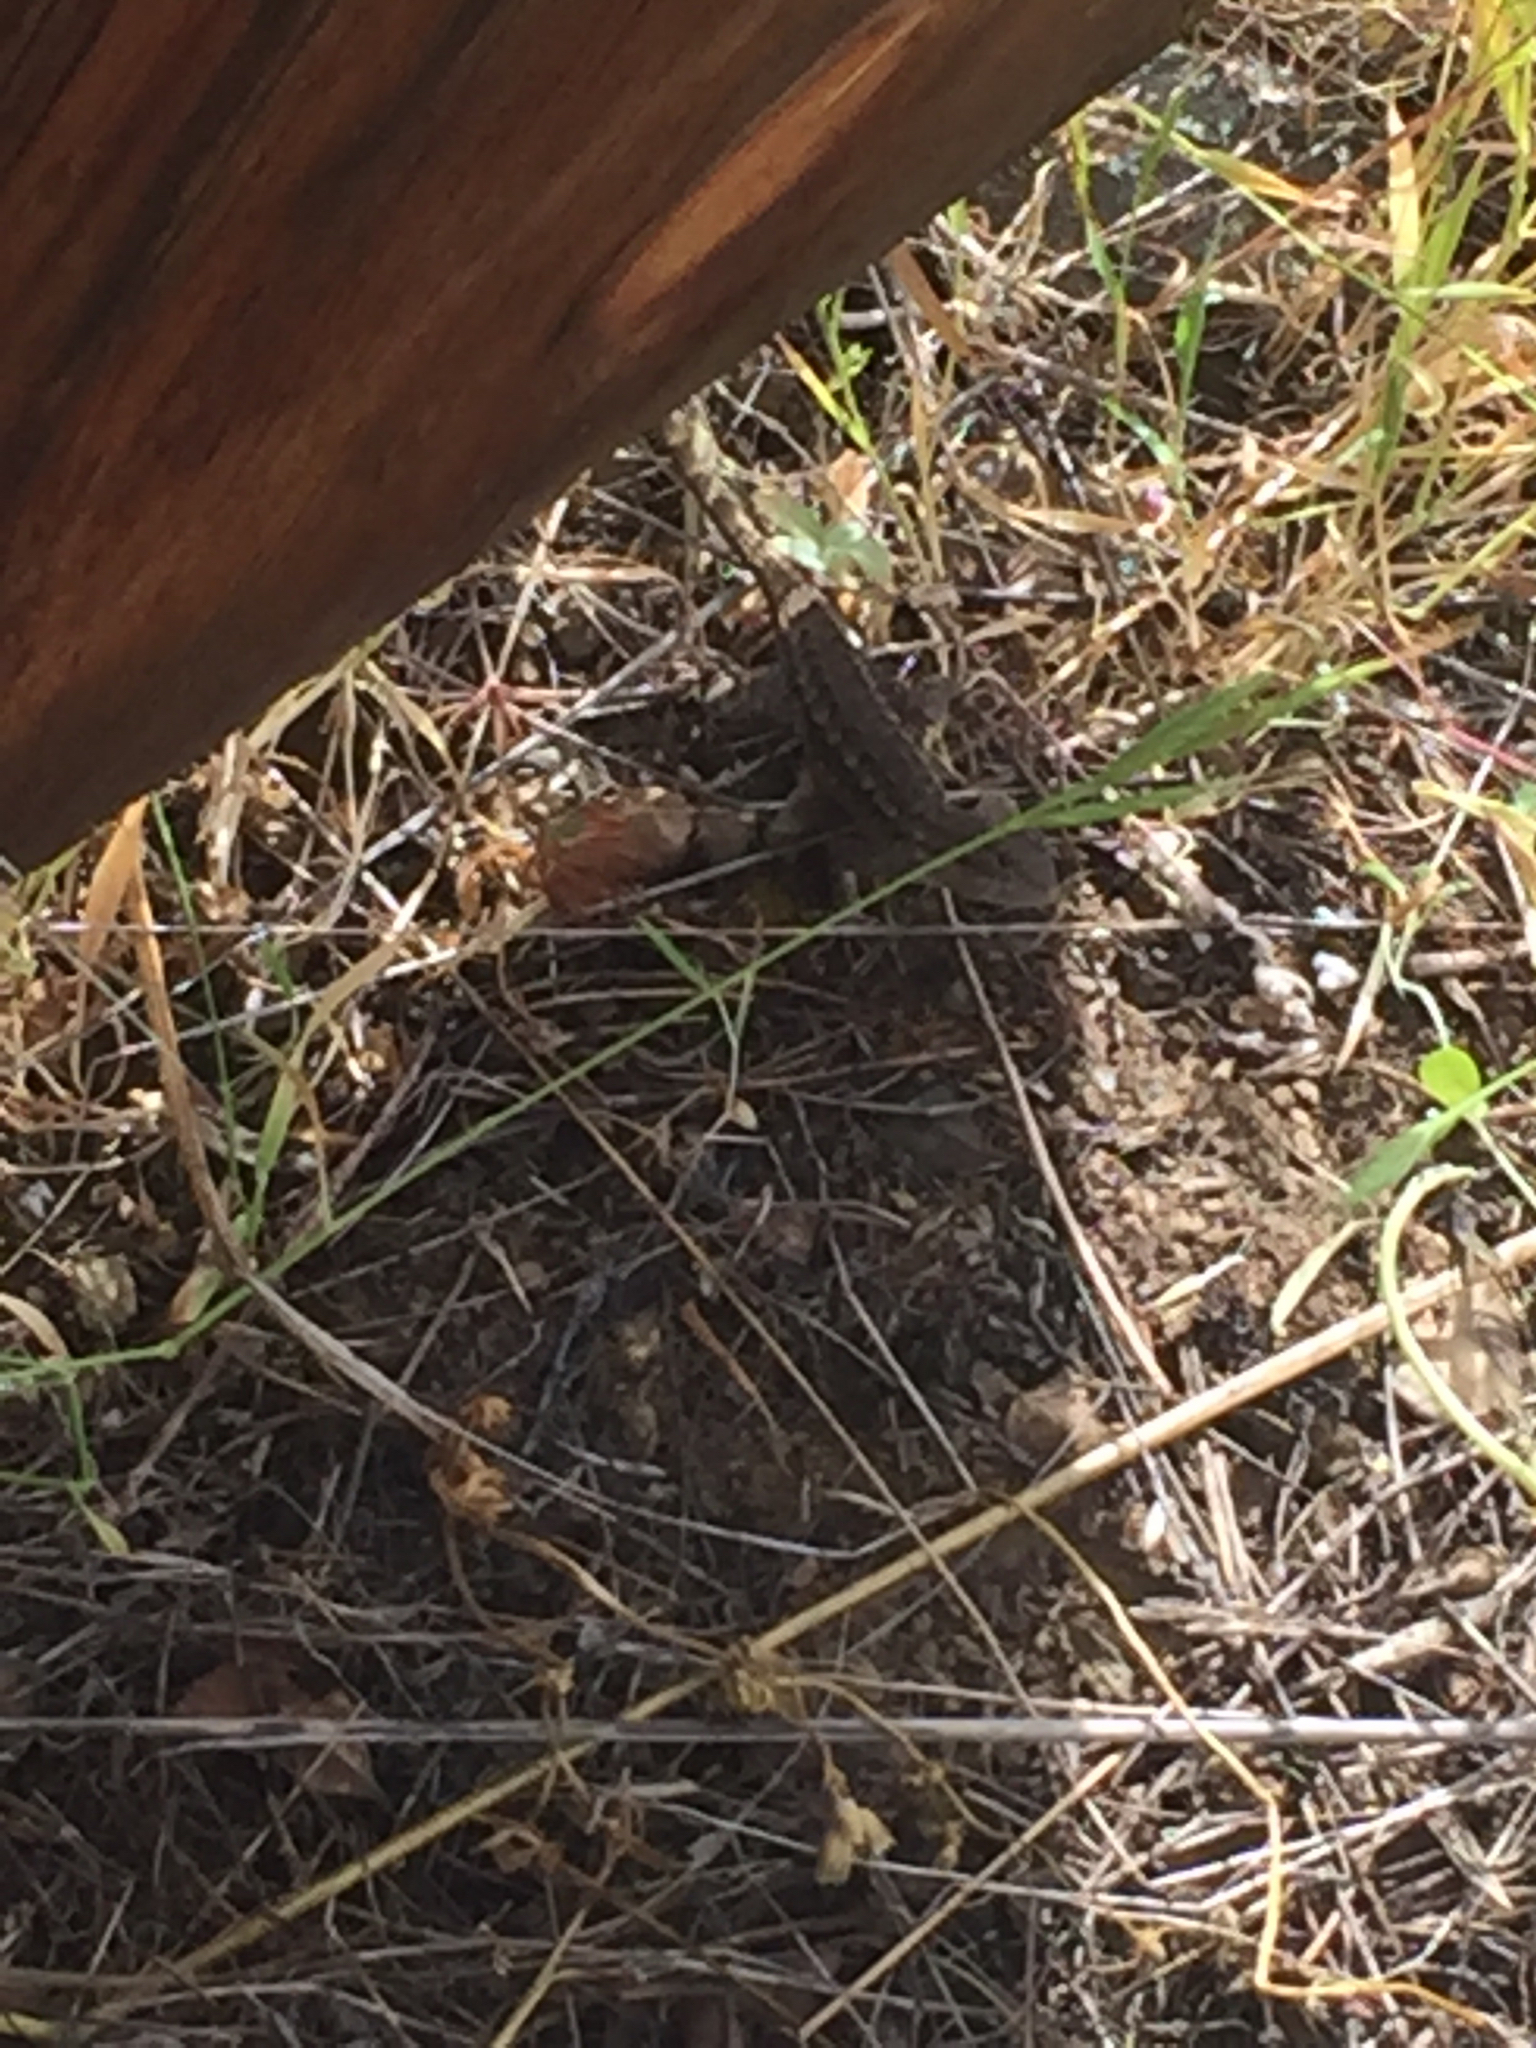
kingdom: Animalia
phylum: Chordata
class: Squamata
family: Phrynosomatidae
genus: Sceloporus
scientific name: Sceloporus occidentalis
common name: Western fence lizard
